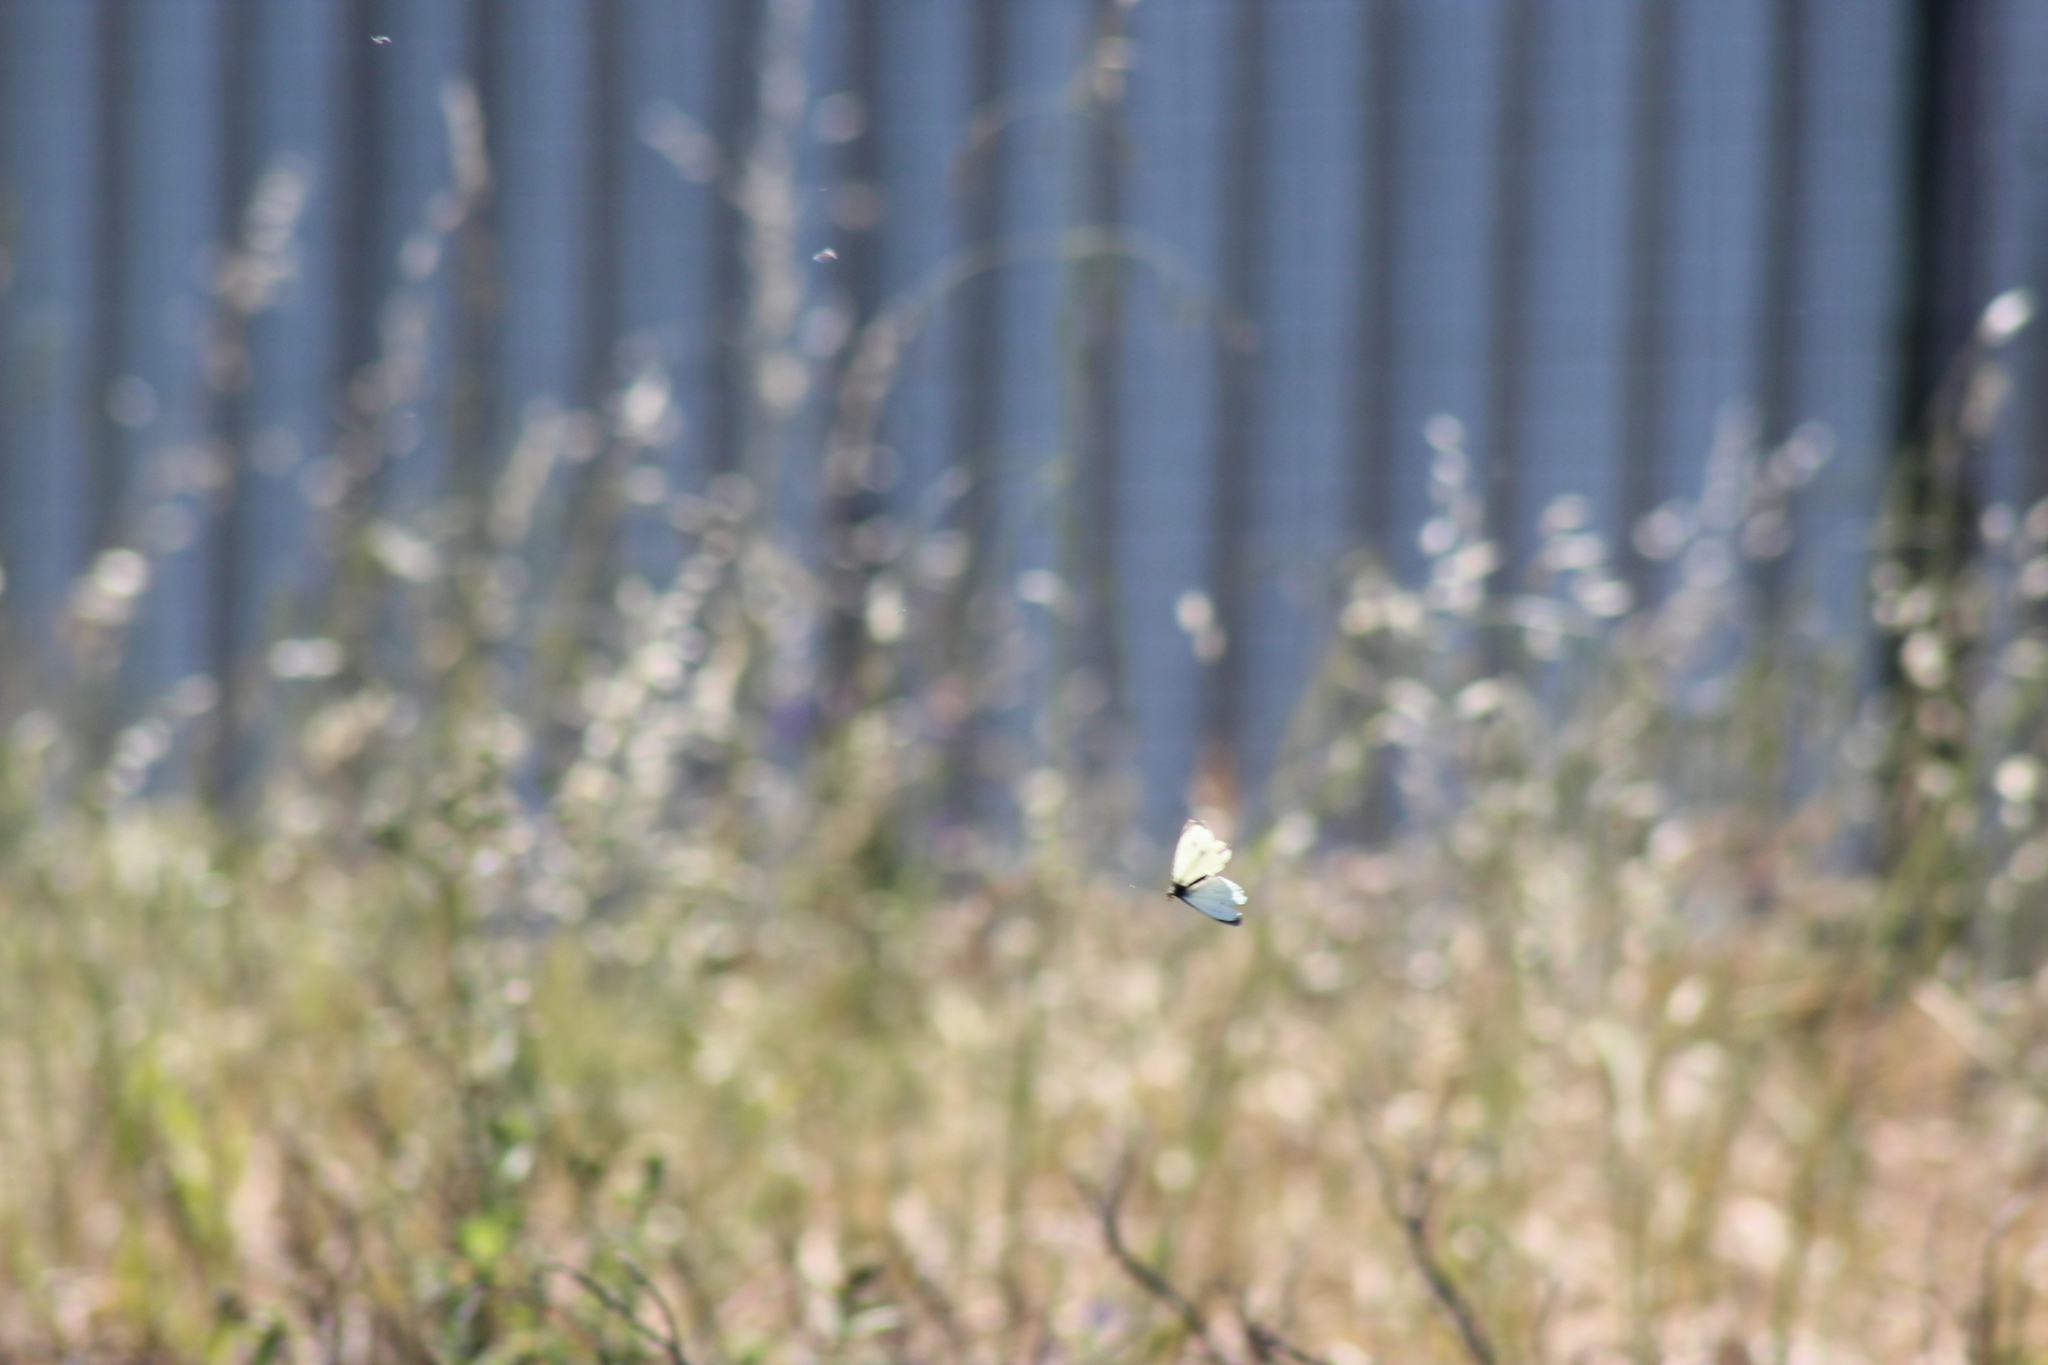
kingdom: Animalia
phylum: Arthropoda
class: Insecta
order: Lepidoptera
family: Pieridae
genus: Pieris
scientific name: Pieris brassicae
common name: Large white
